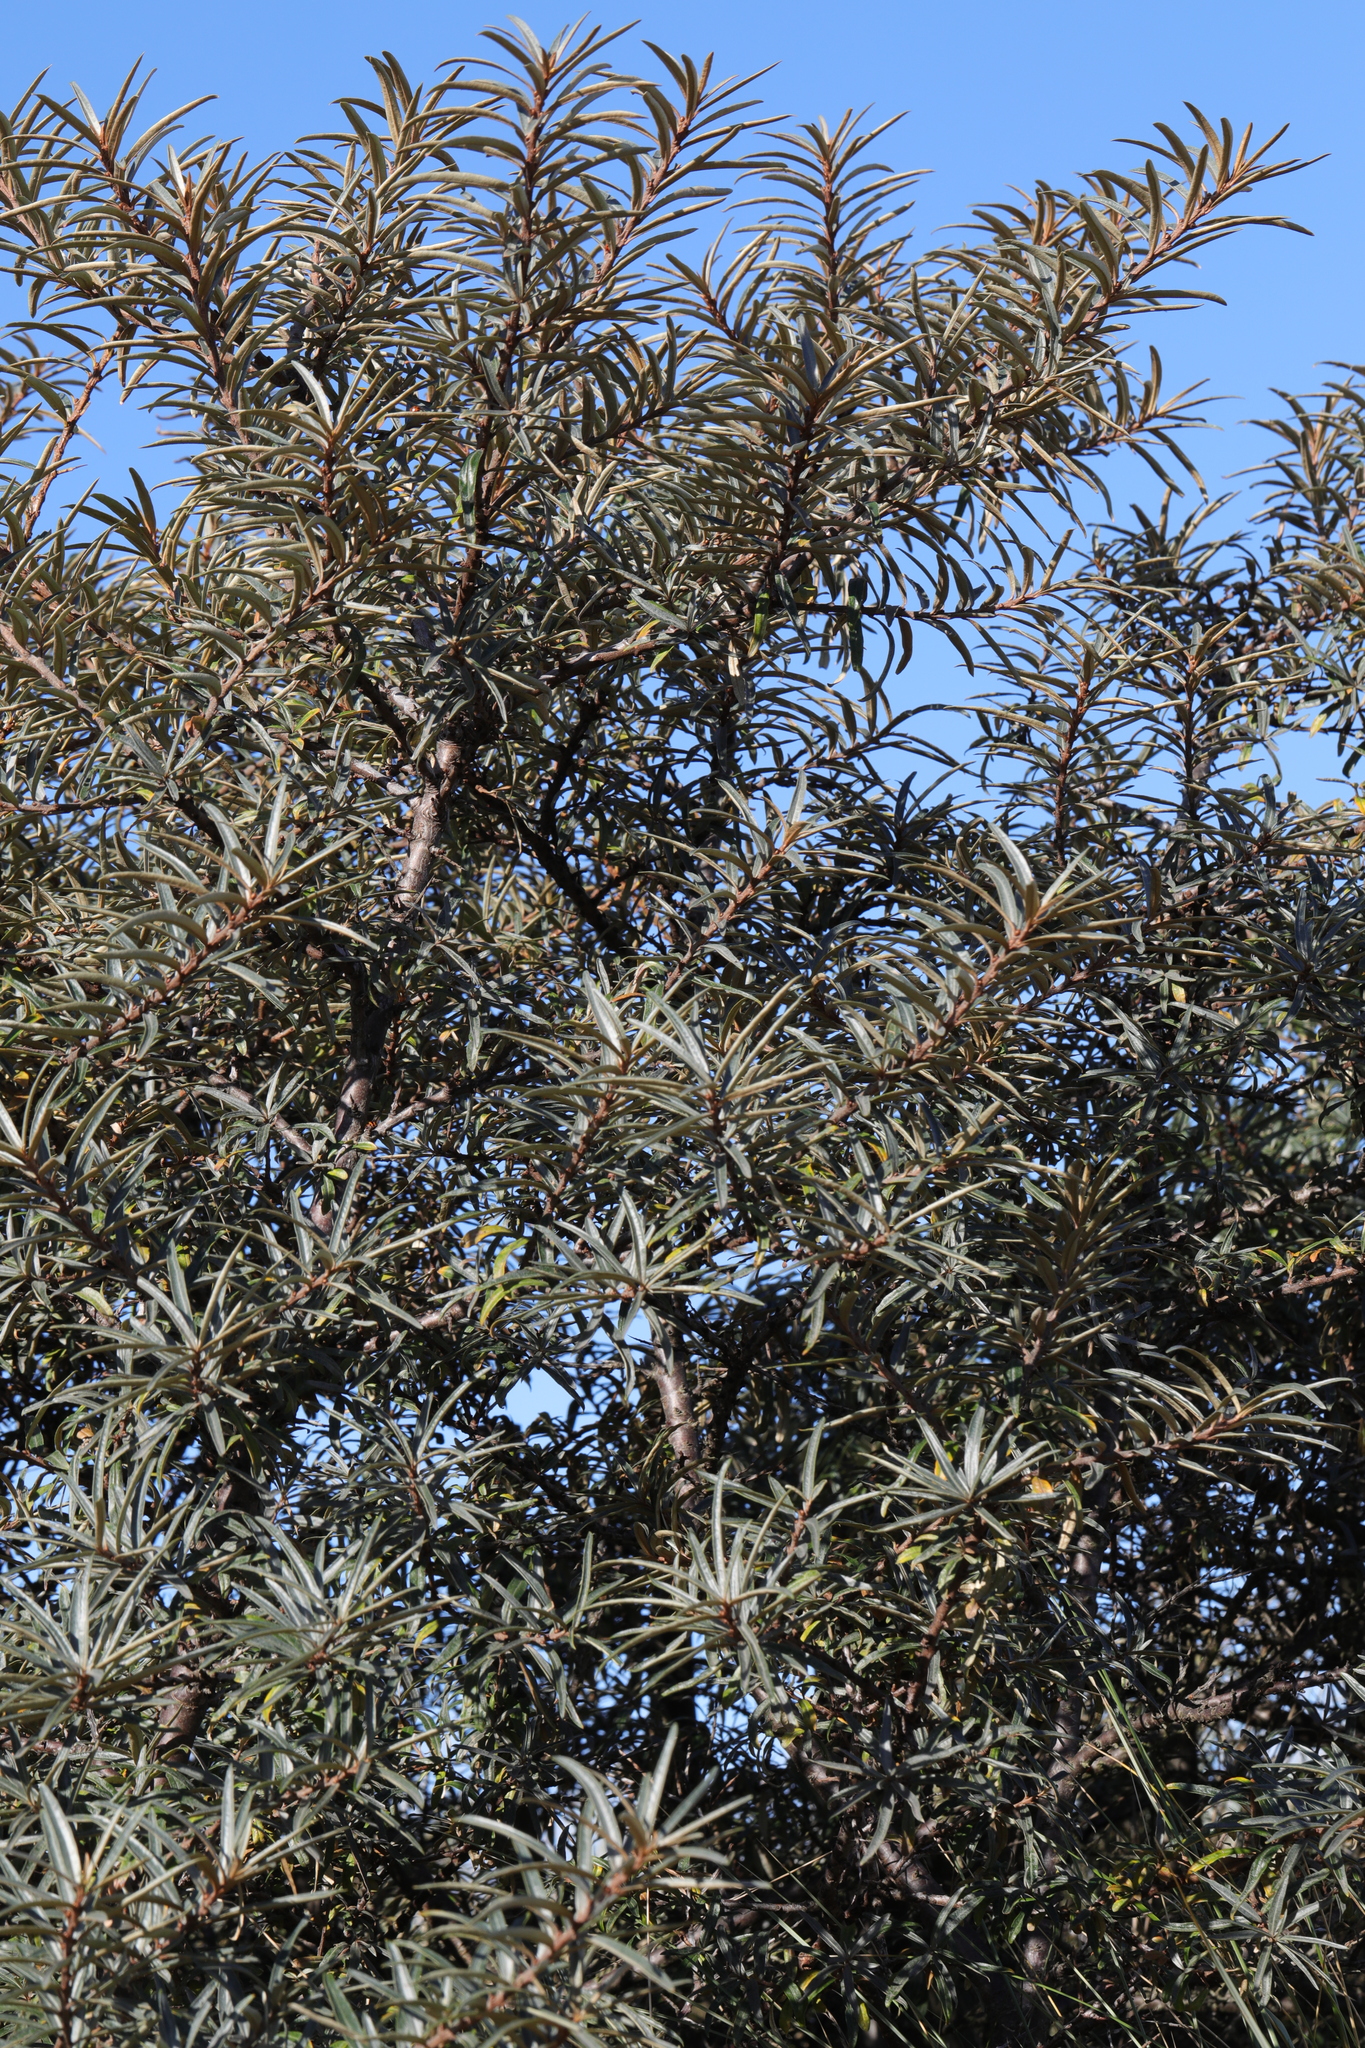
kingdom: Plantae
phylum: Tracheophyta
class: Magnoliopsida
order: Rosales
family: Elaeagnaceae
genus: Hippophae
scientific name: Hippophae rhamnoides
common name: Sea-buckthorn
